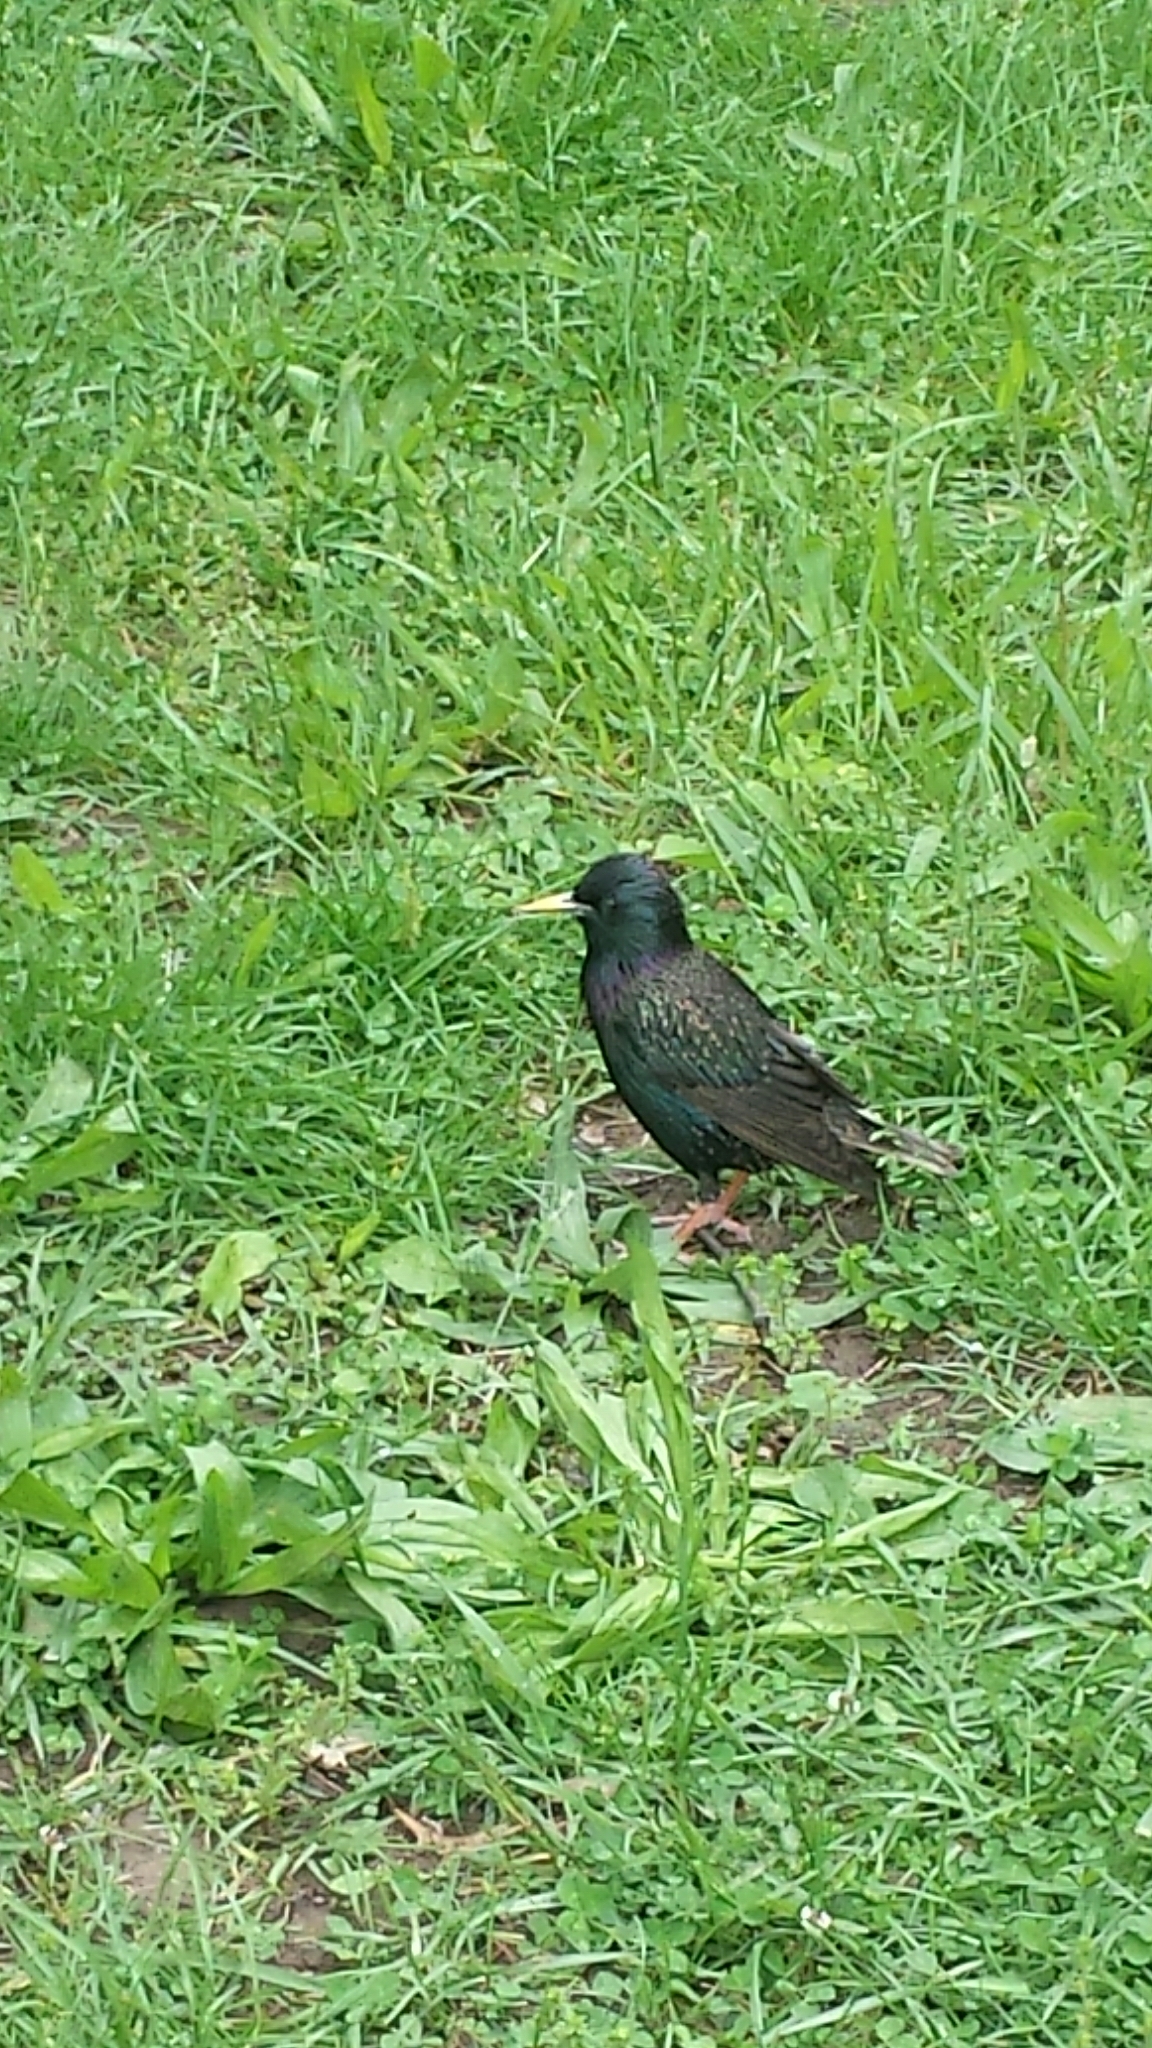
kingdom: Animalia
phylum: Chordata
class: Aves
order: Passeriformes
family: Sturnidae
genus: Sturnus
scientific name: Sturnus vulgaris
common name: Common starling
